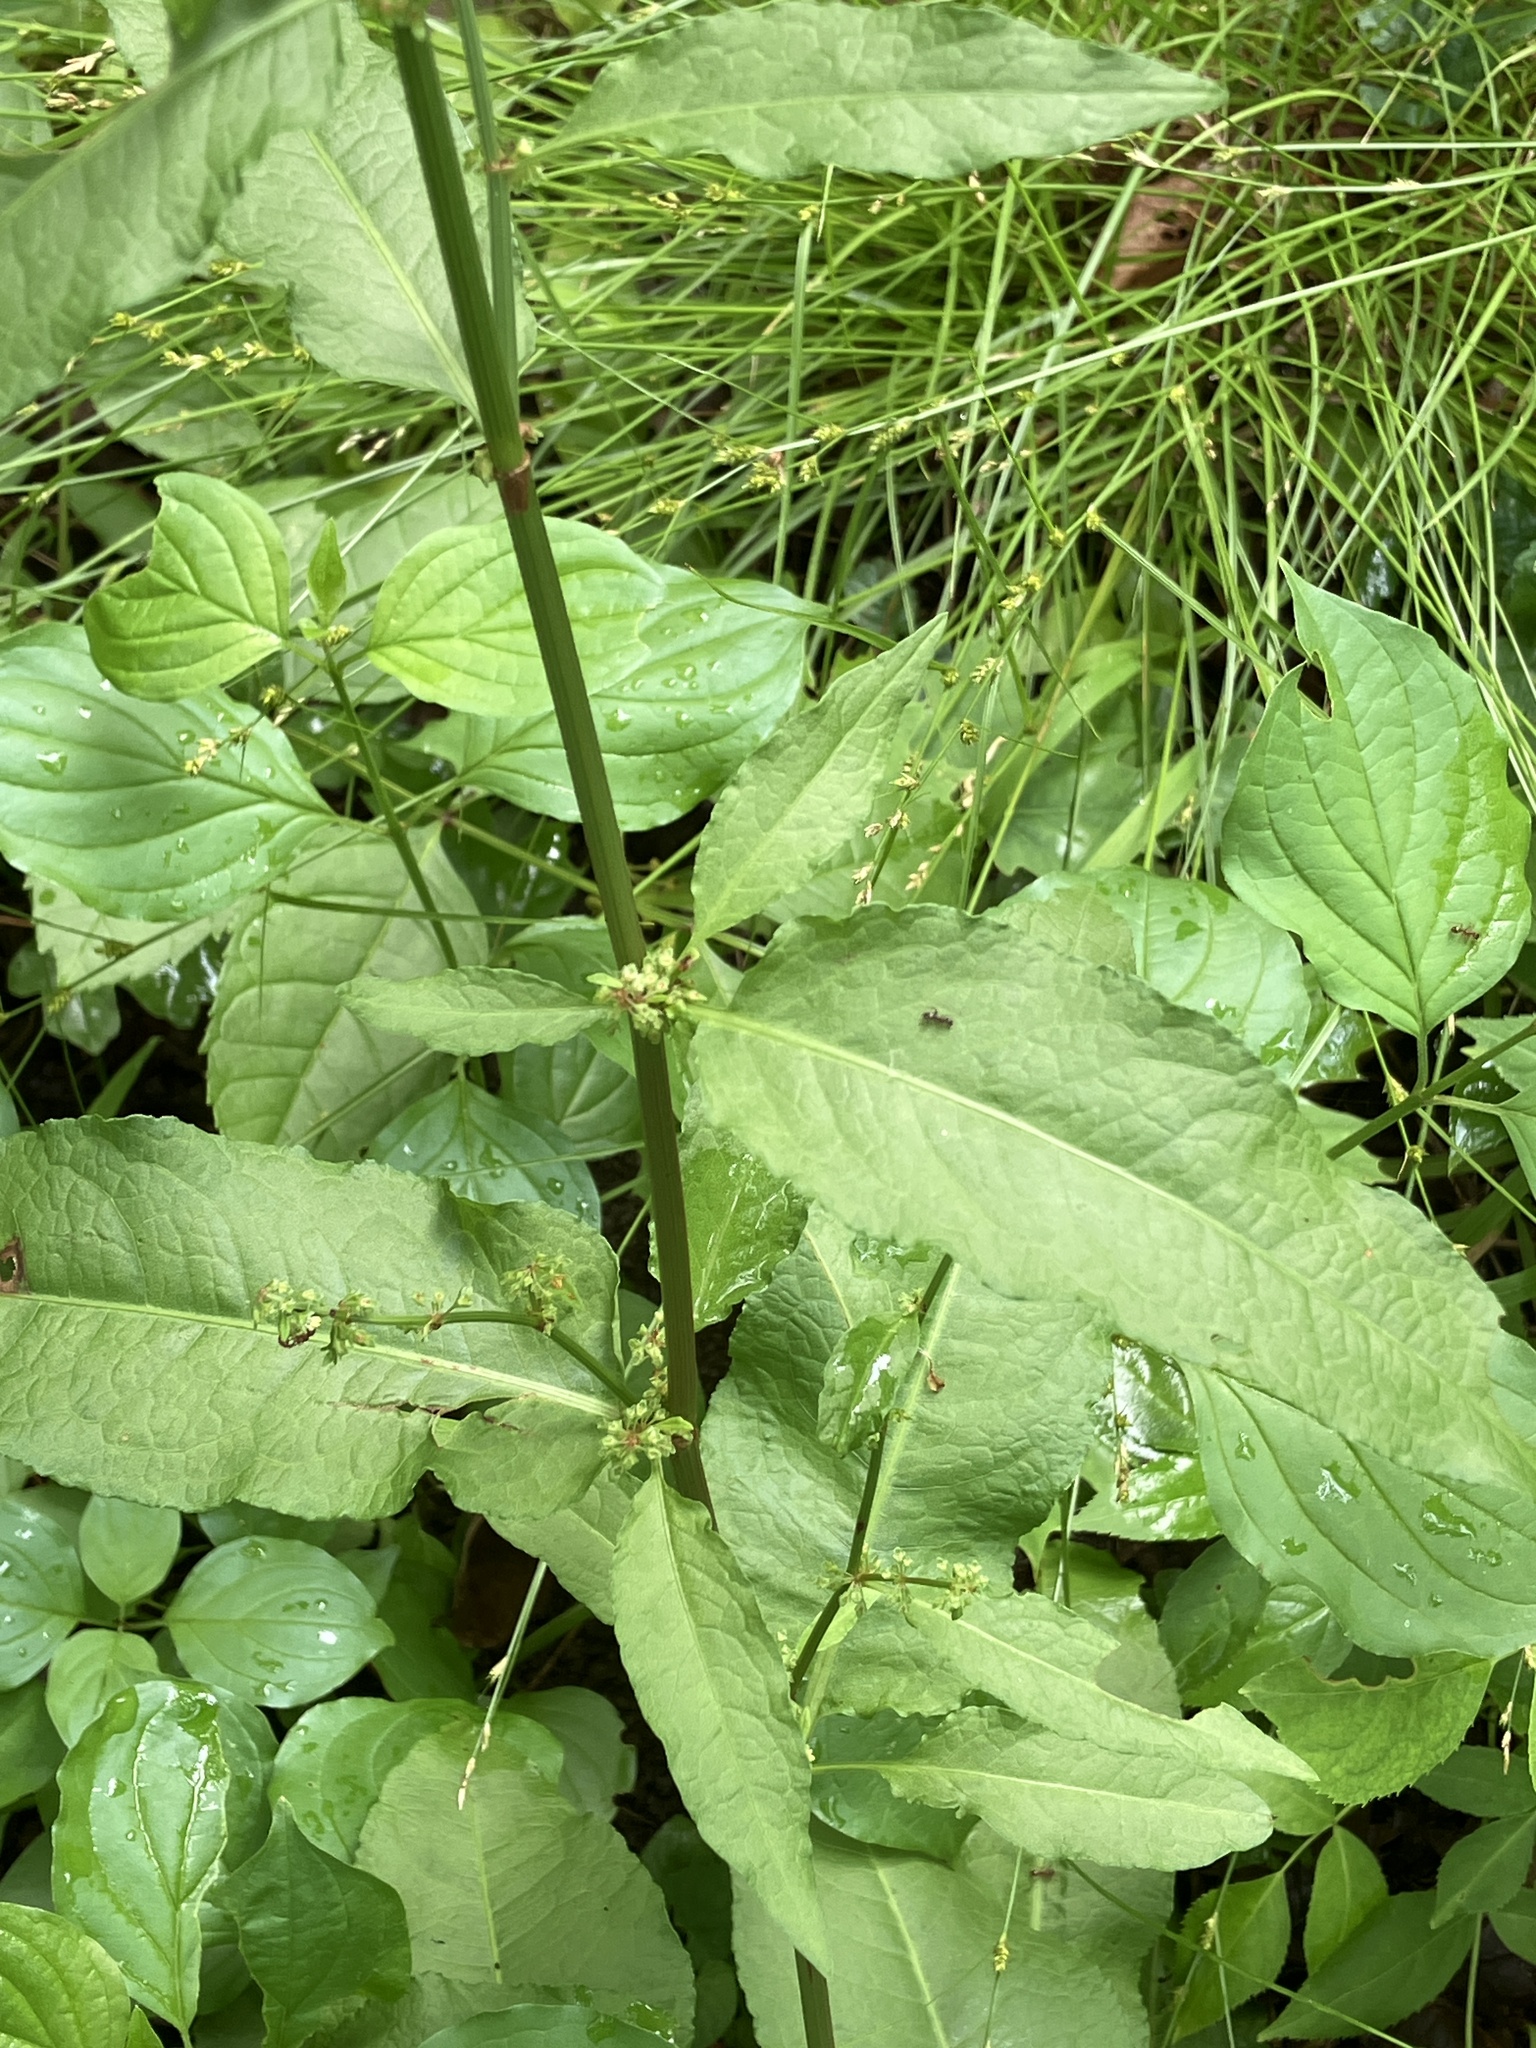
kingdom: Plantae
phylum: Tracheophyta
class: Magnoliopsida
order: Caryophyllales
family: Polygonaceae
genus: Rumex
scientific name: Rumex sanguineus
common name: Wood dock
